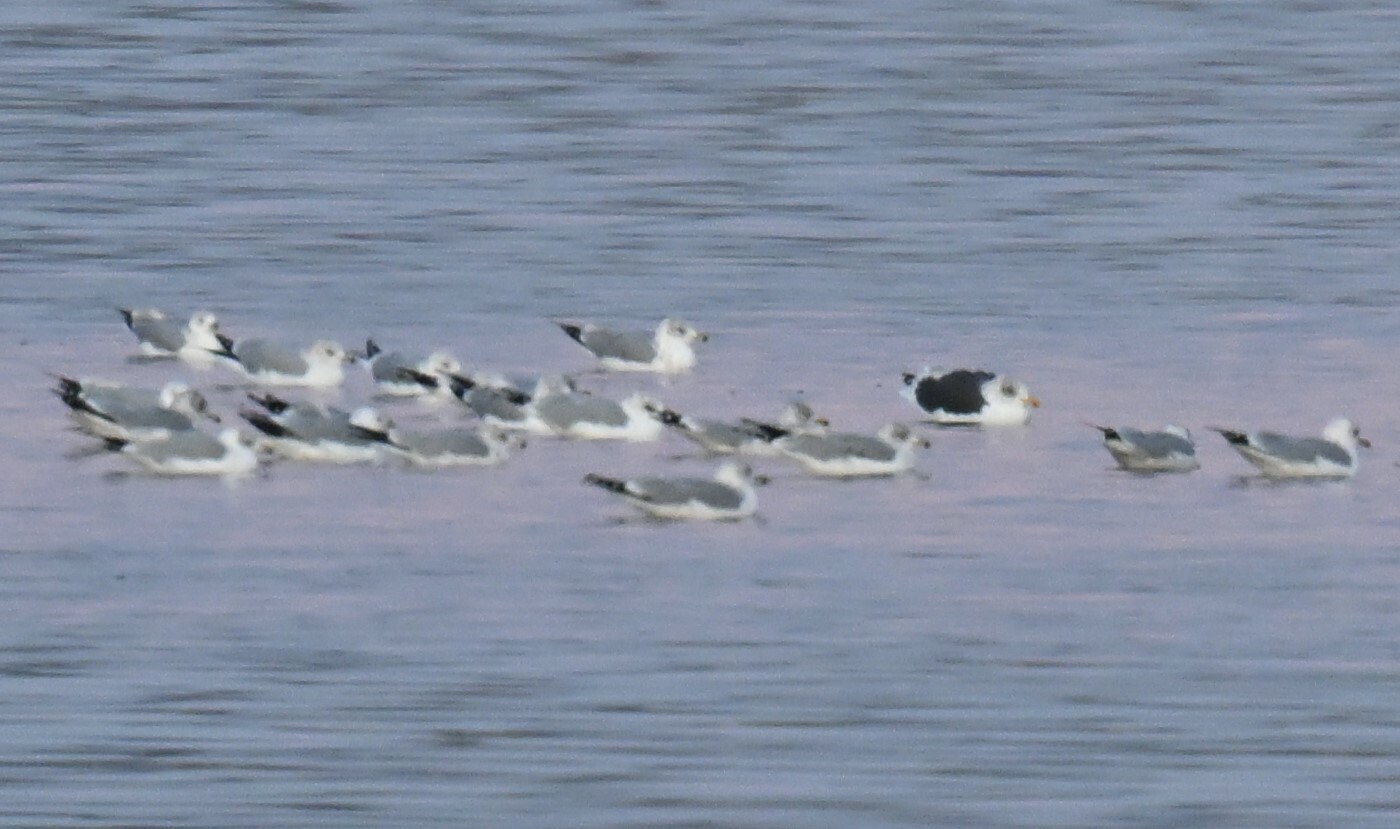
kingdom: Animalia
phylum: Chordata
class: Aves
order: Charadriiformes
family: Laridae
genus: Larus
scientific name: Larus fuscus
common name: Lesser black-backed gull
